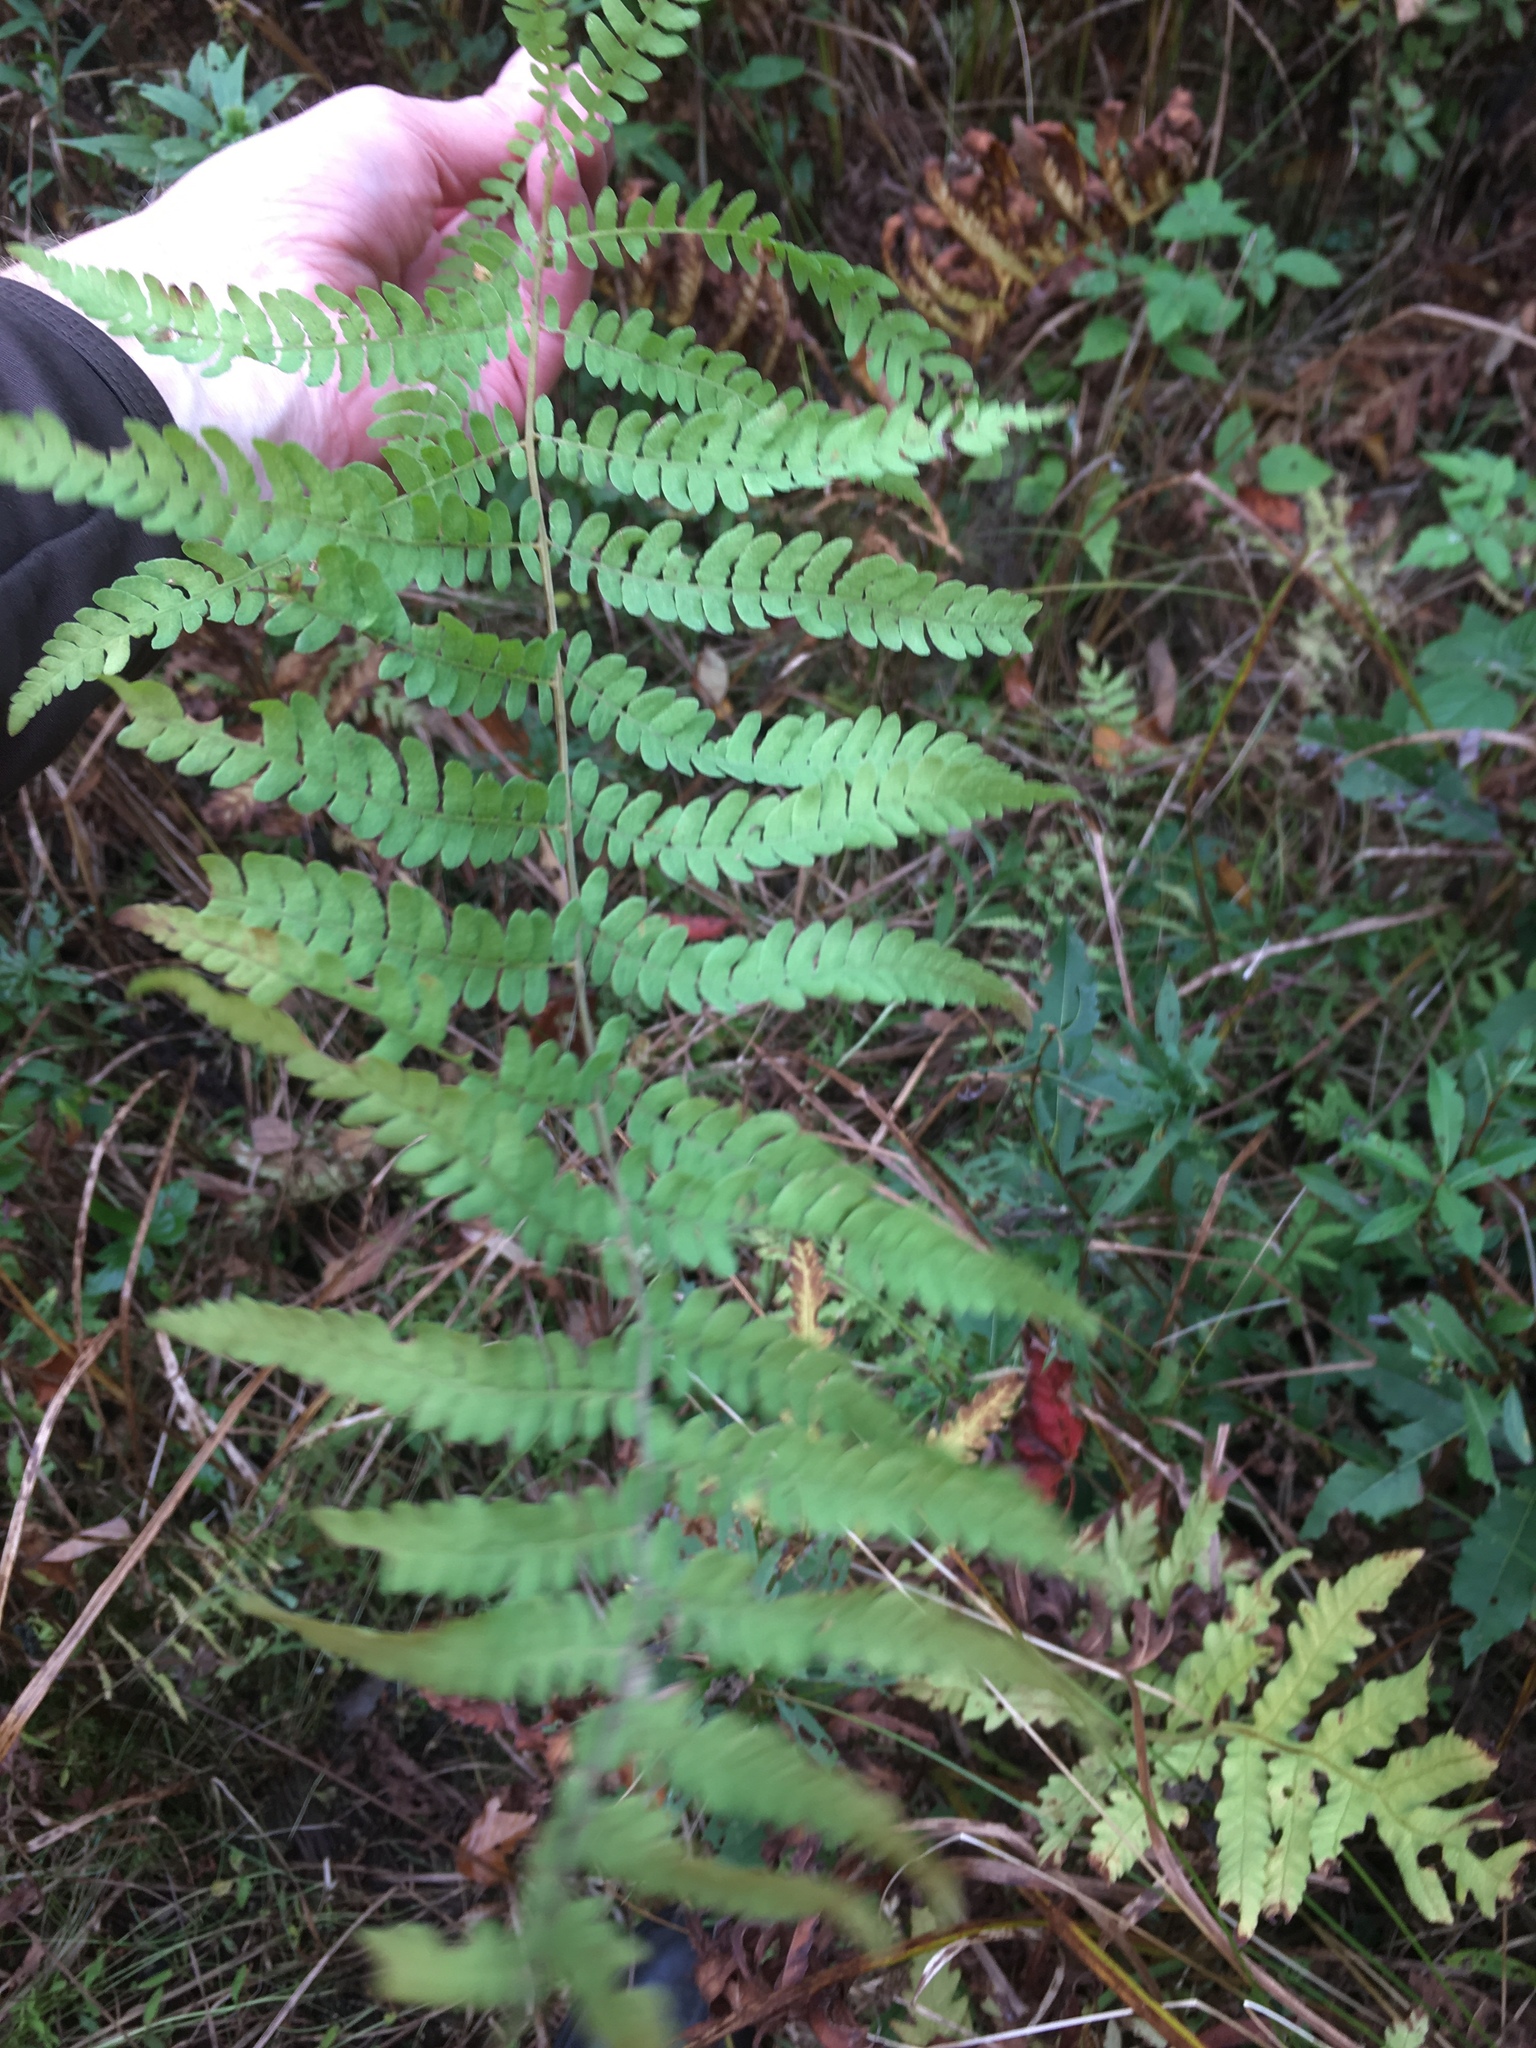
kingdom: Plantae
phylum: Tracheophyta
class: Polypodiopsida
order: Polypodiales
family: Thelypteridaceae
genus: Thelypteris
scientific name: Thelypteris palustris
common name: Marsh fern
